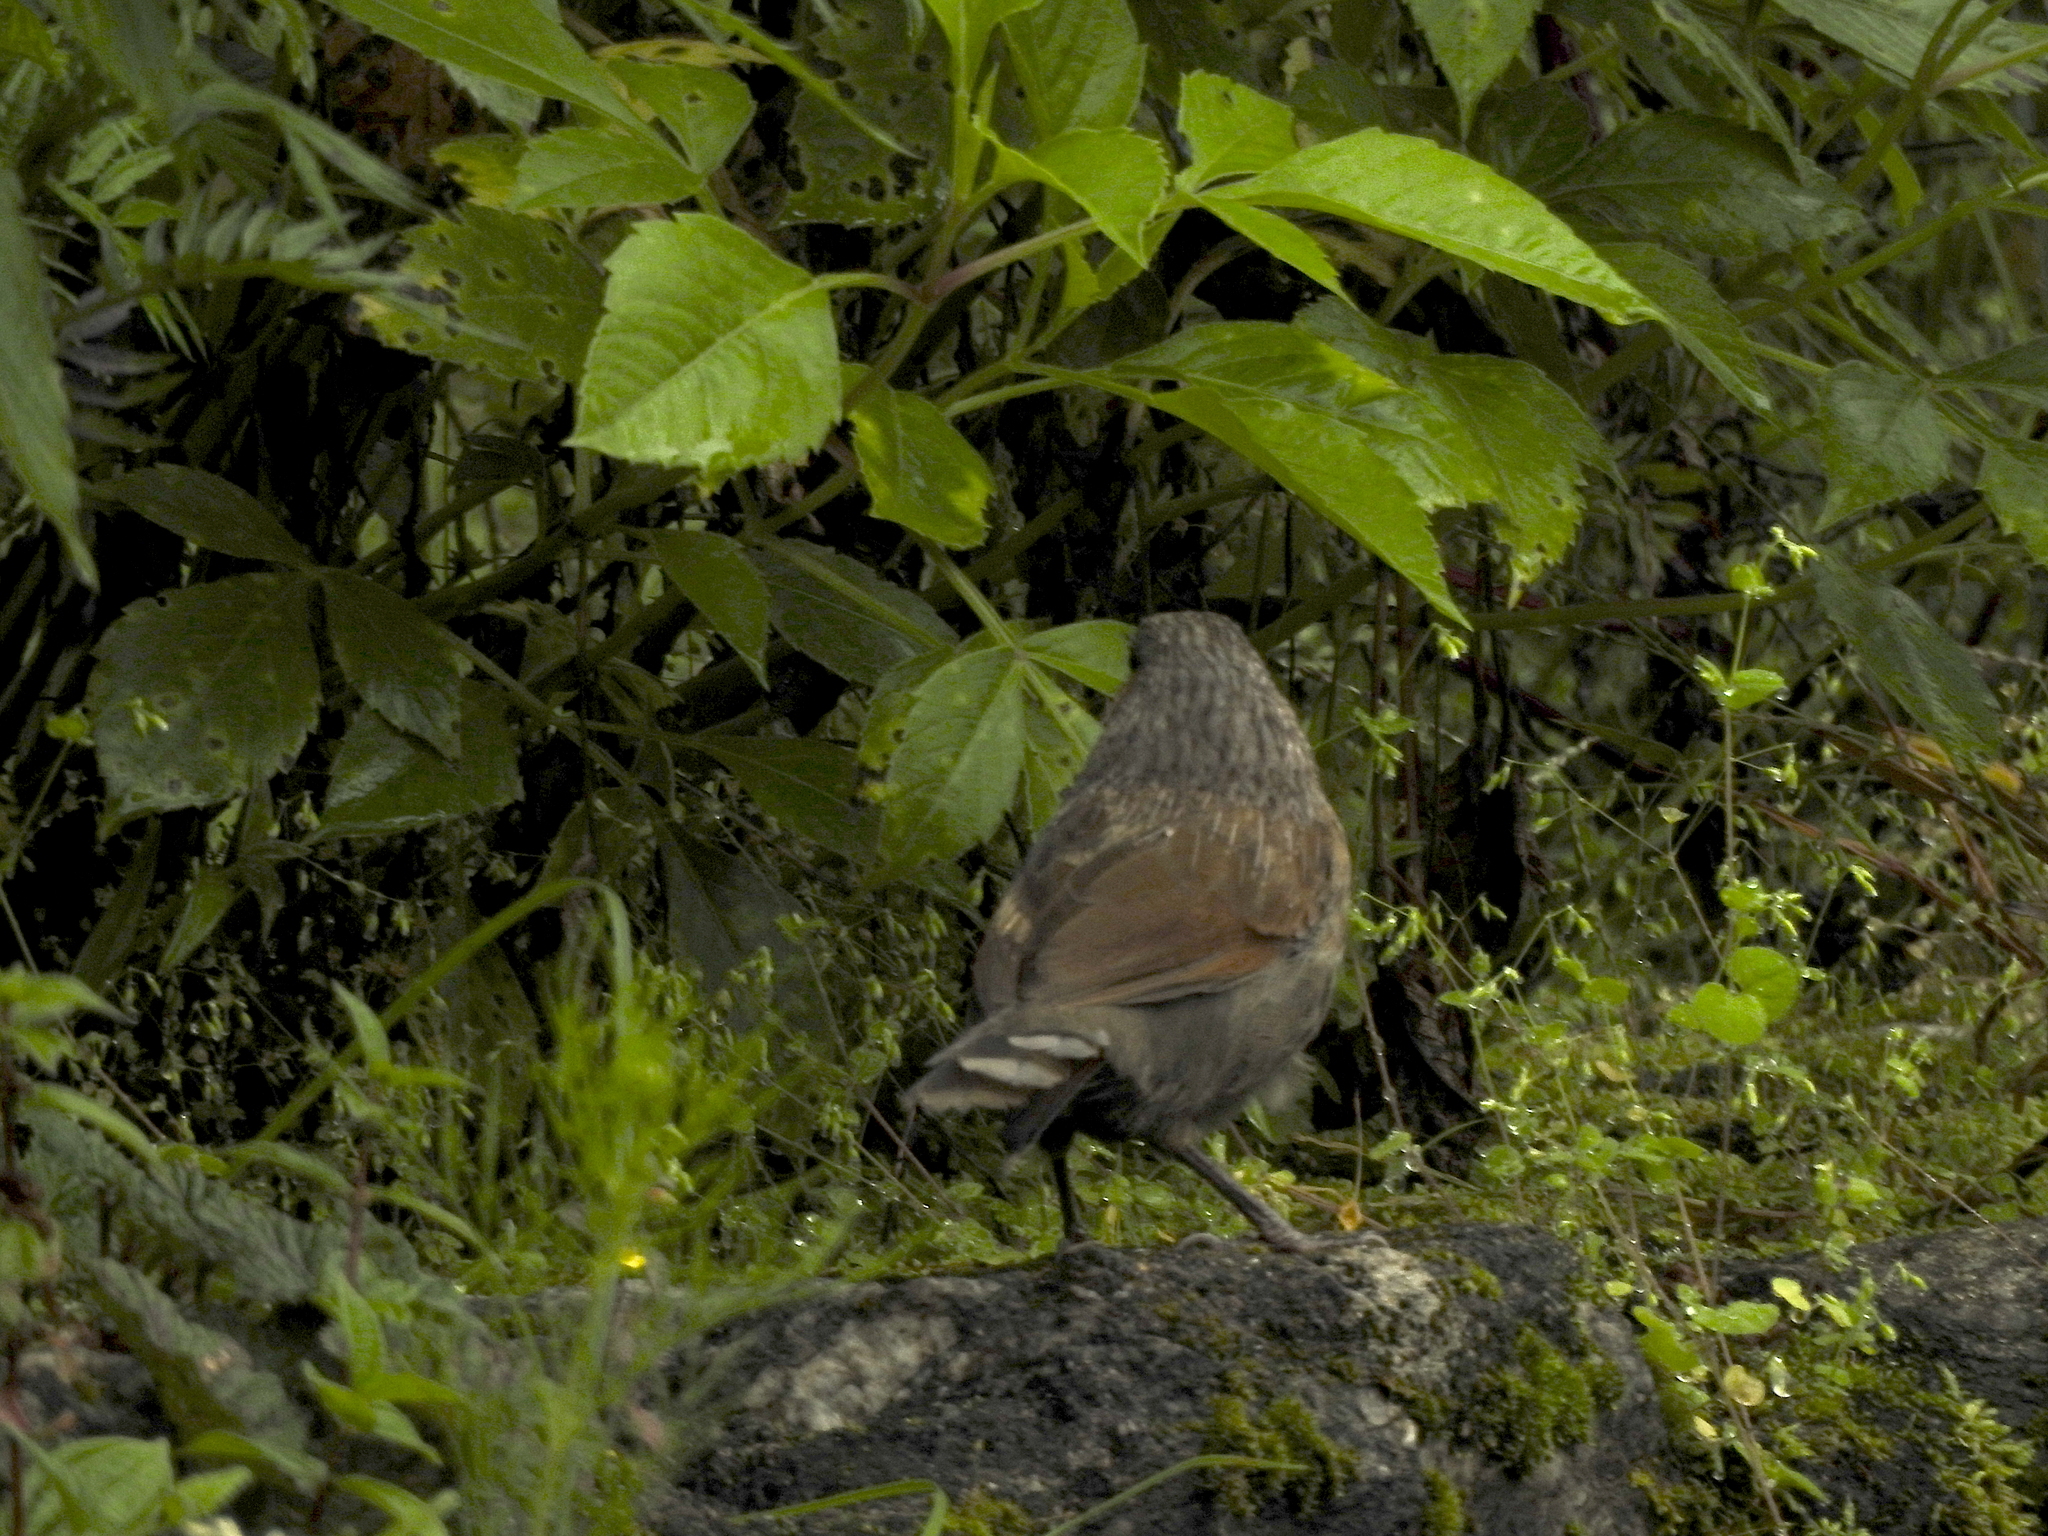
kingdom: Animalia
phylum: Chordata
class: Aves
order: Passeriformes
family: Leiothrichidae
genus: Trochalopteron
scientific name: Trochalopteron lineatum
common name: Streaked laughingthrush
